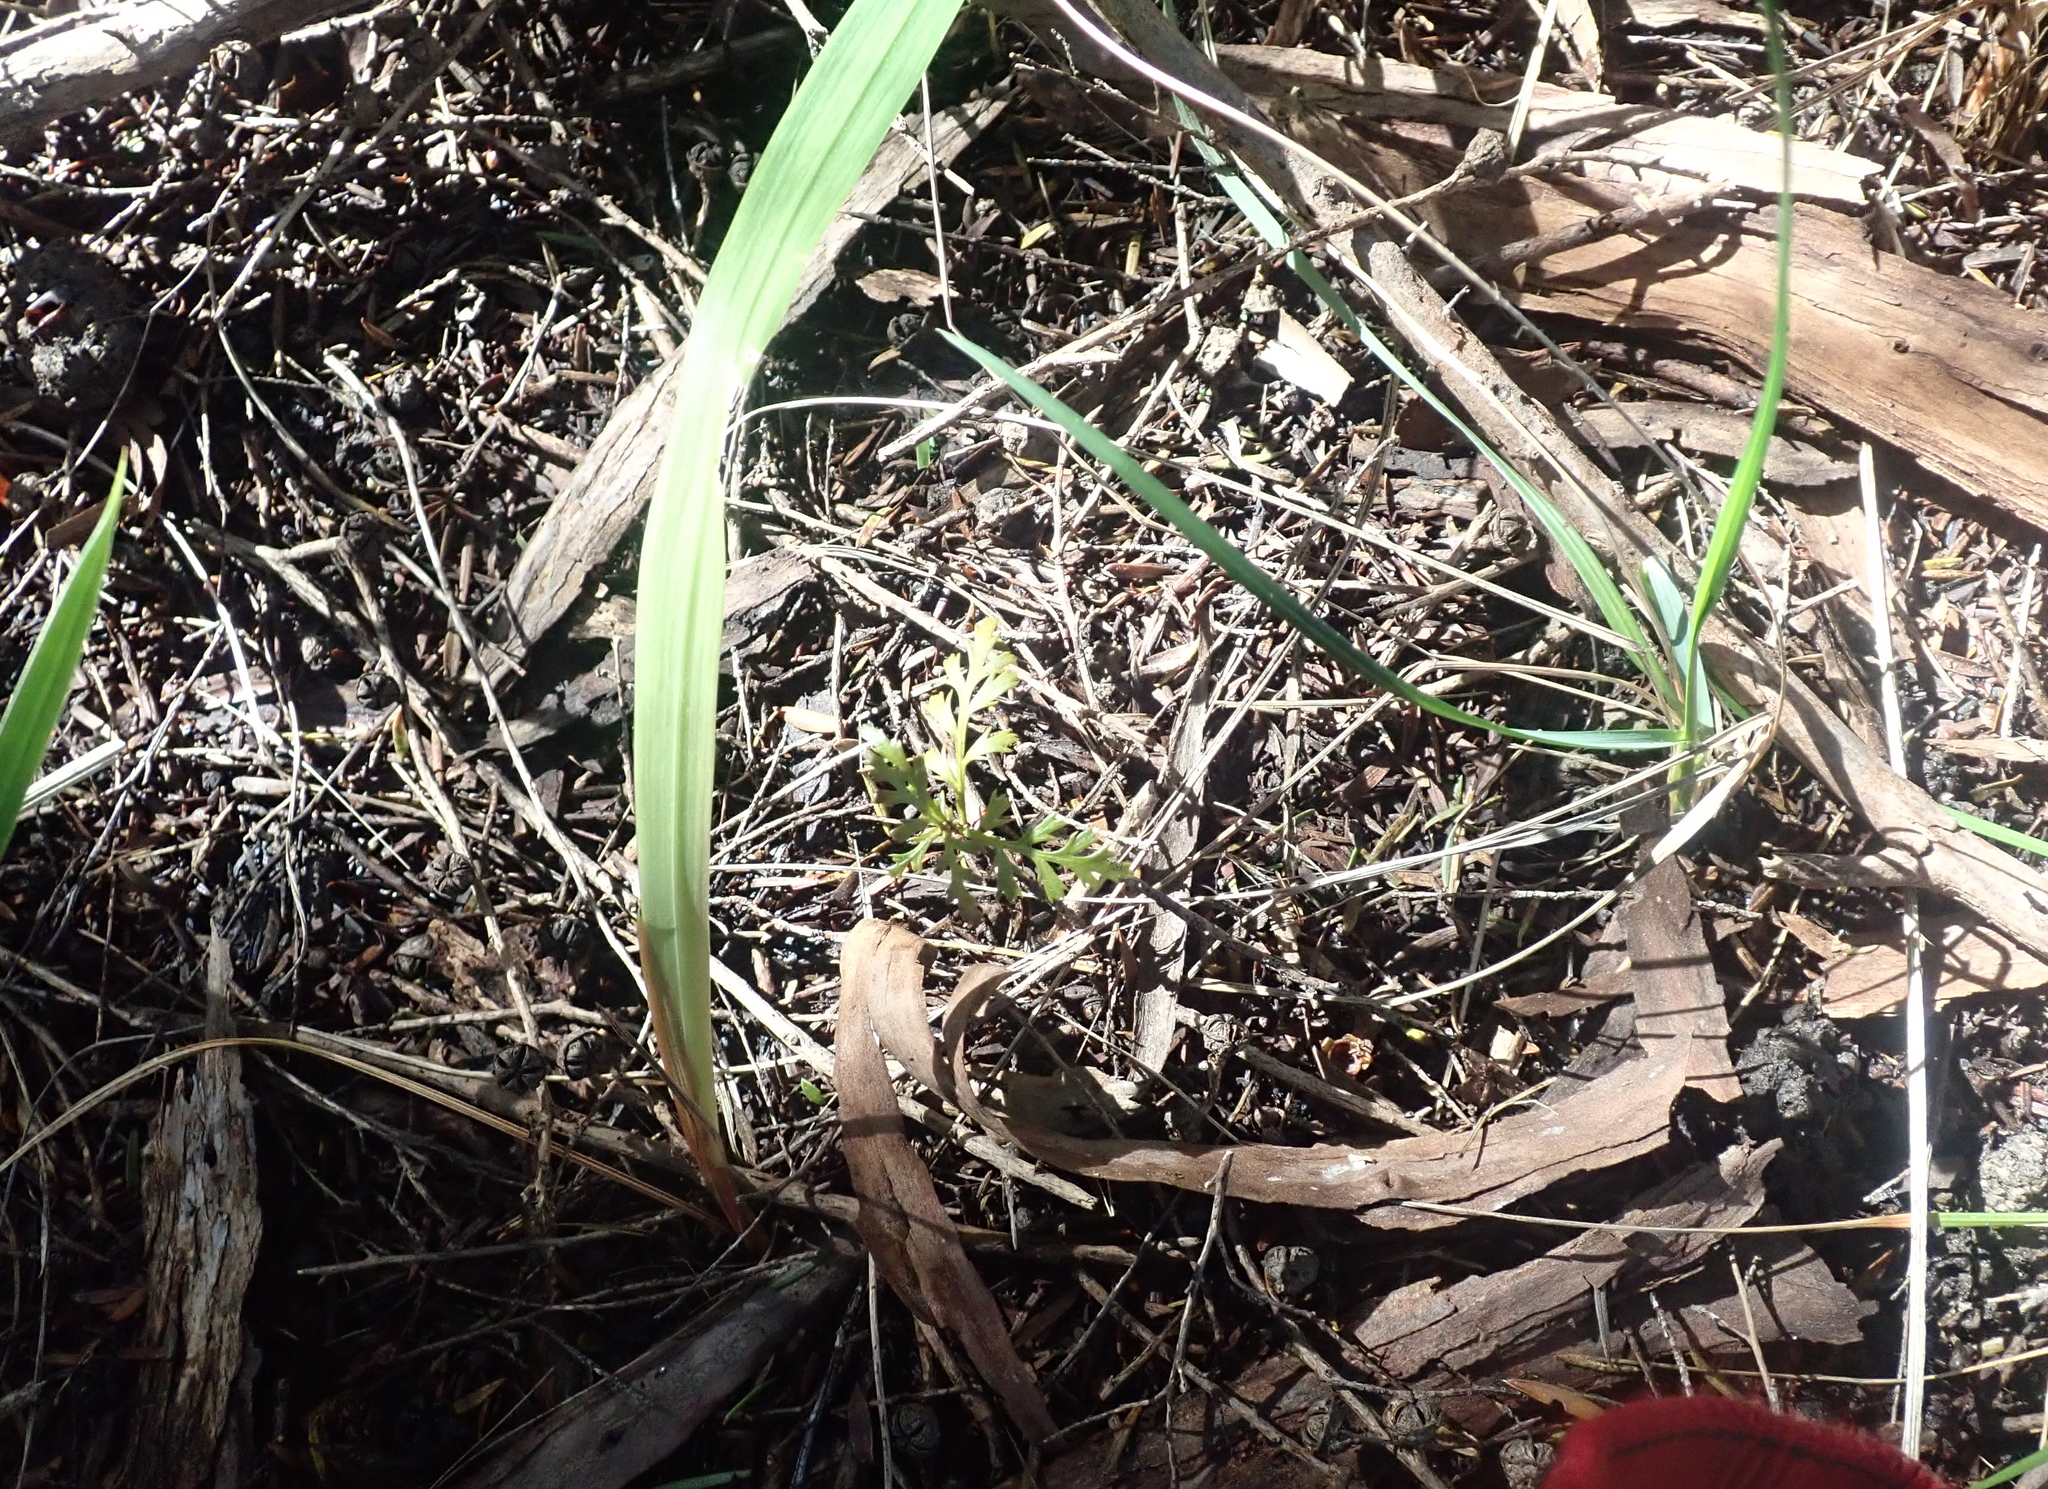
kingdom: Plantae
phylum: Tracheophyta
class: Pinopsida
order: Pinales
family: Phyllocladaceae
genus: Phyllocladus
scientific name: Phyllocladus trichomanoides
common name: Celery pine
